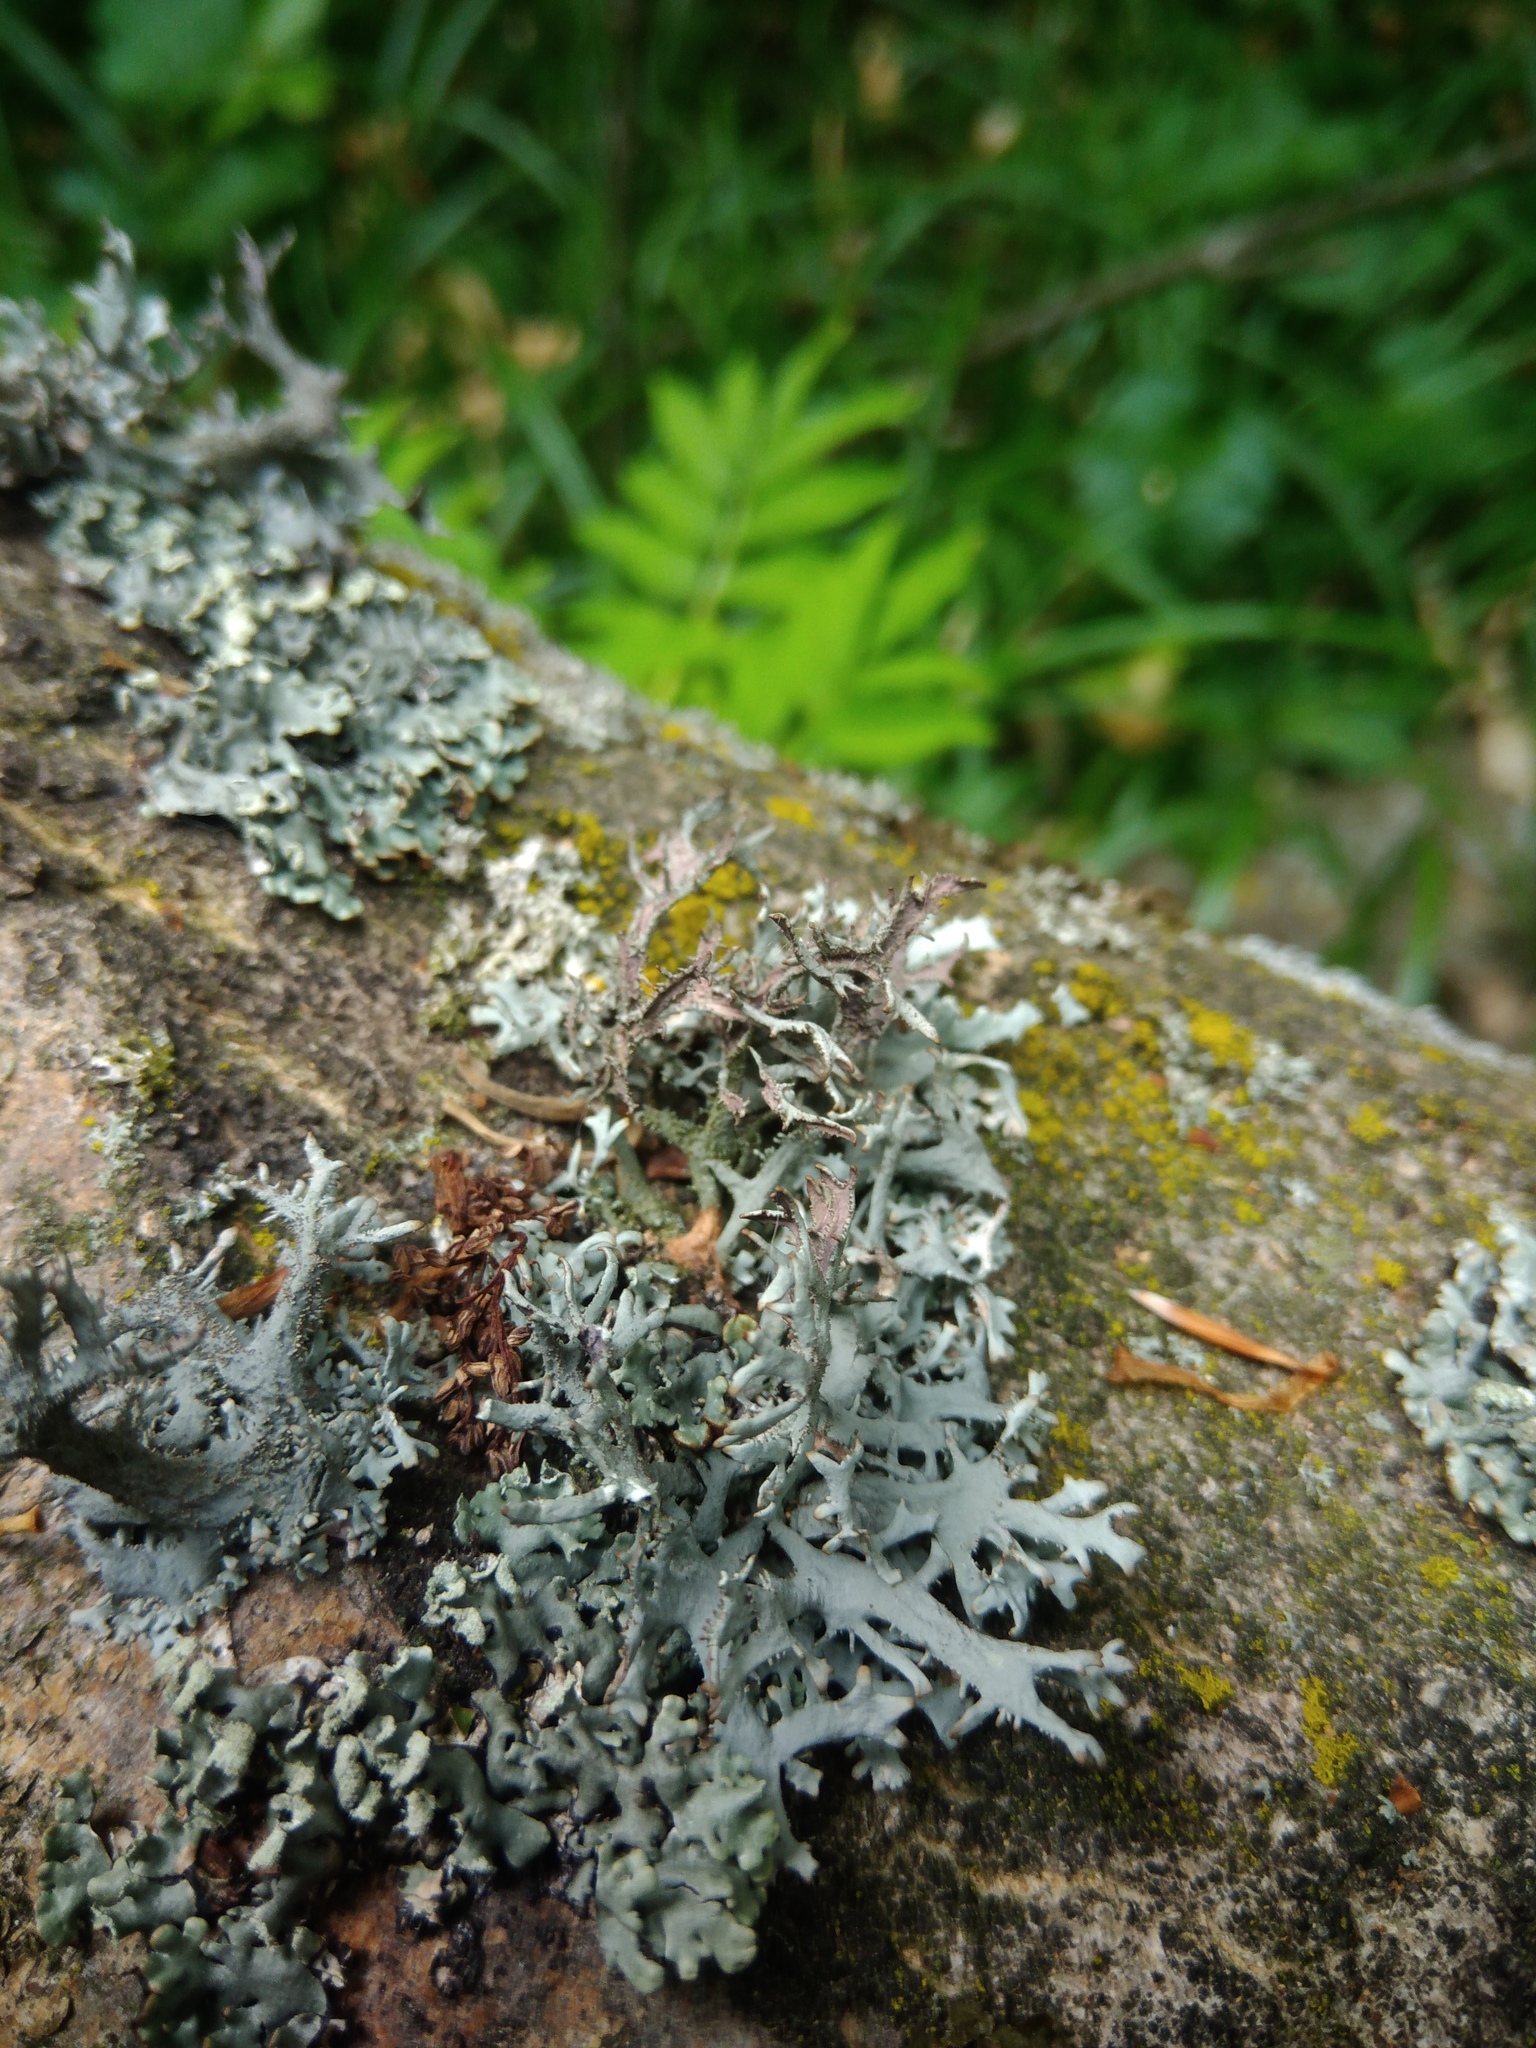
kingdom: Fungi
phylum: Ascomycota
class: Lecanoromycetes
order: Lecanorales
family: Parmeliaceae
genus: Pseudevernia
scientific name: Pseudevernia furfuracea
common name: Tree moss
